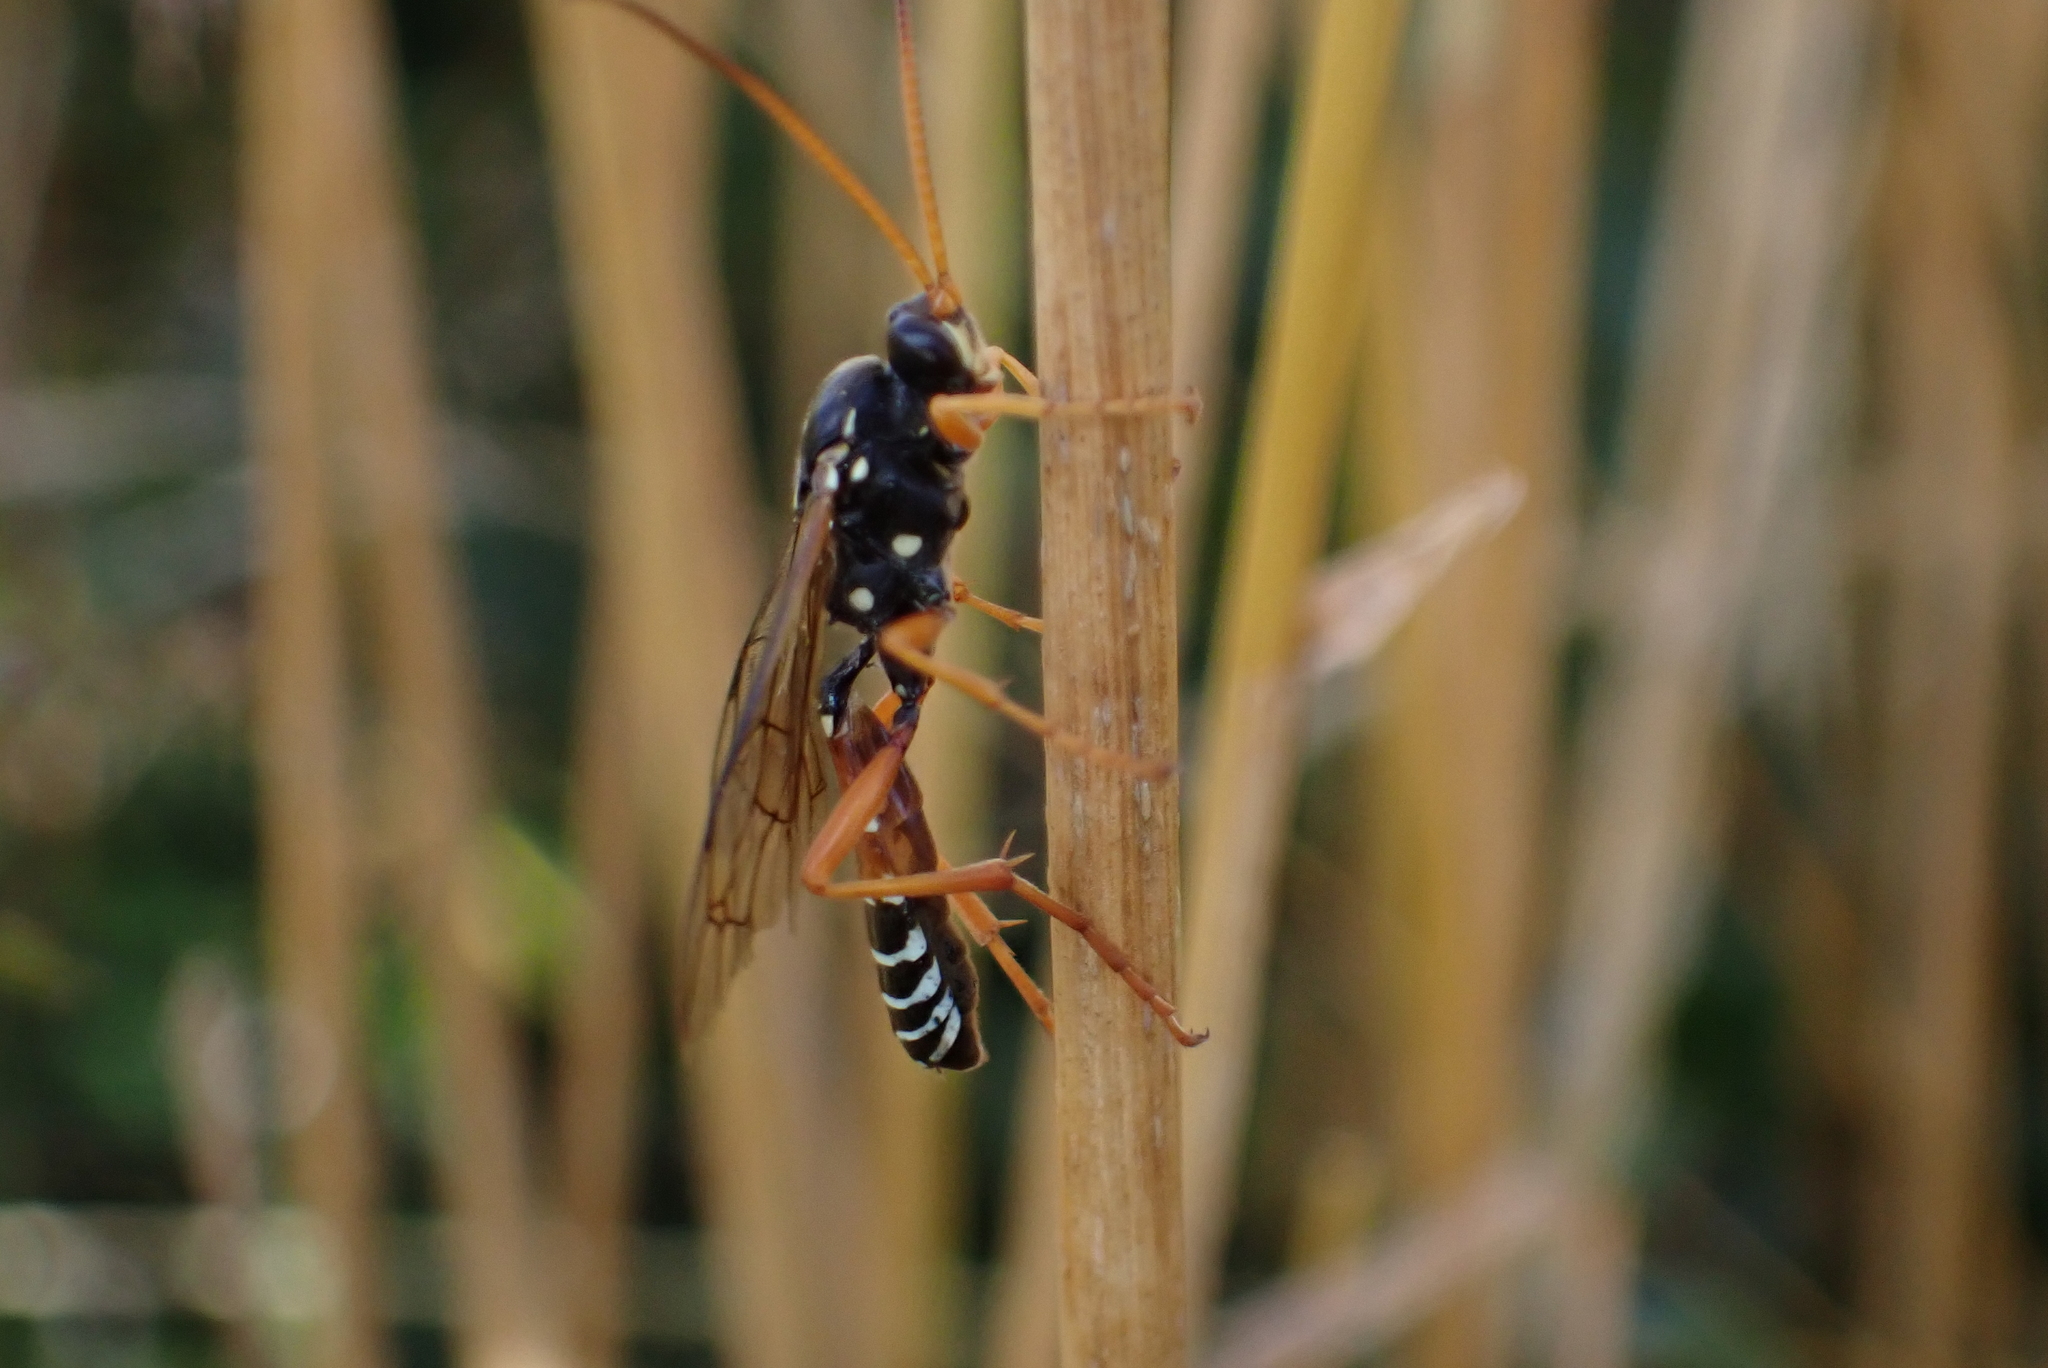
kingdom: Animalia
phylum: Arthropoda
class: Insecta
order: Hymenoptera
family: Ichneumonidae
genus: Eutanyacra
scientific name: Eutanyacra licitatoria
